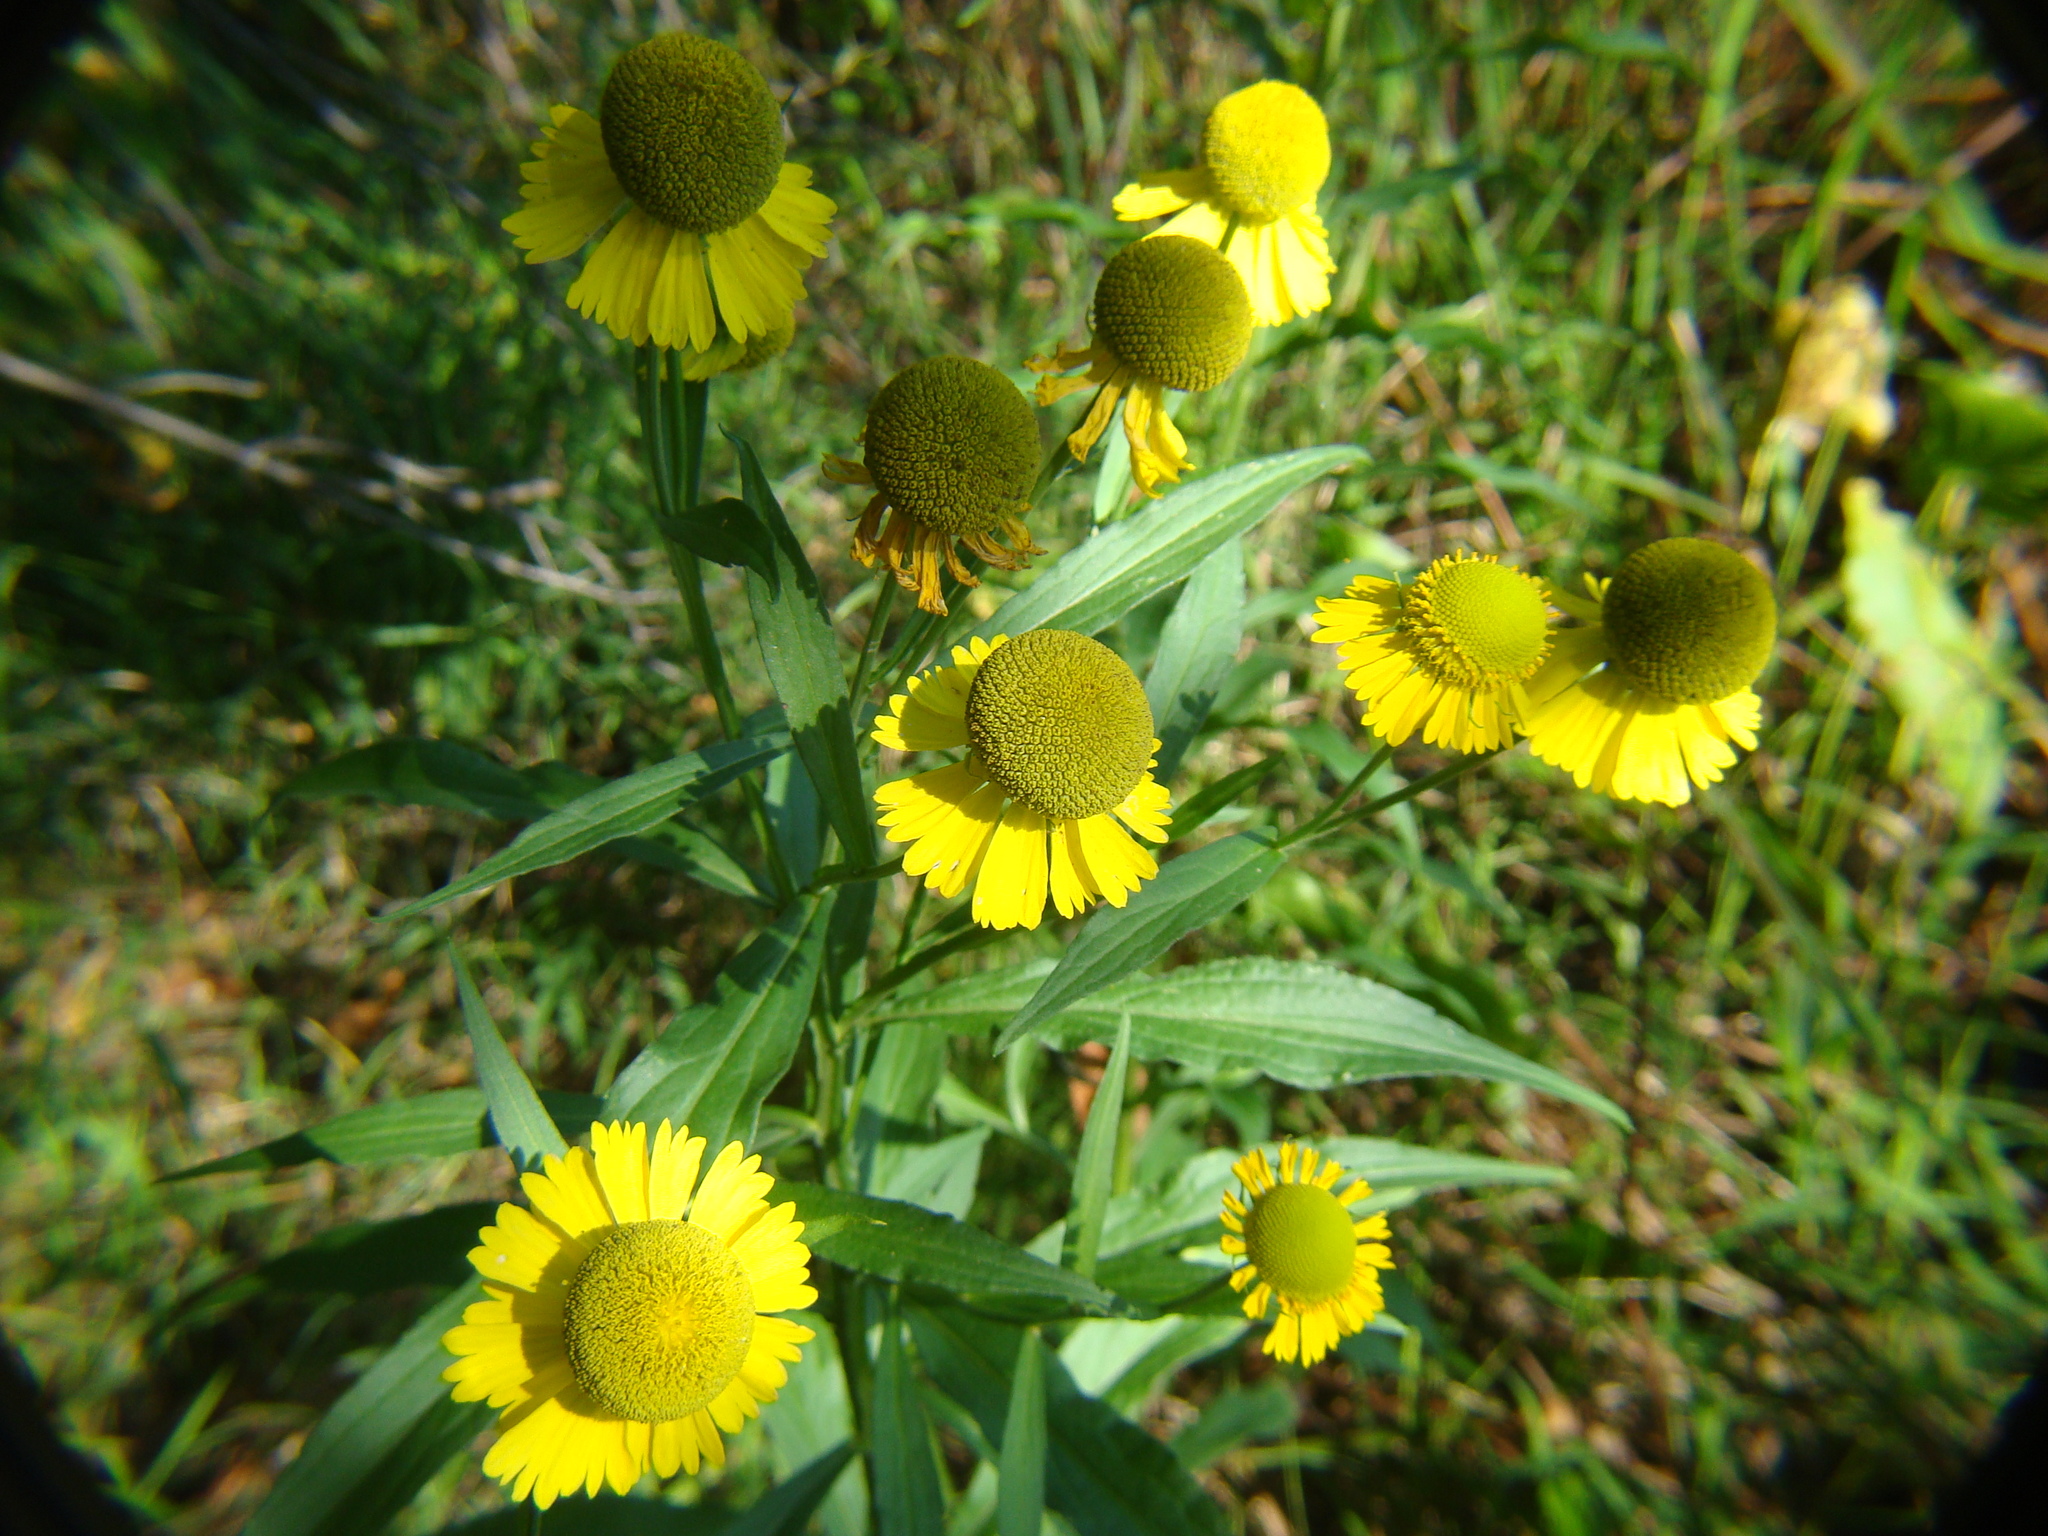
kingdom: Plantae
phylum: Tracheophyta
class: Magnoliopsida
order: Asterales
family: Asteraceae
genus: Helenium
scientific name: Helenium autumnale
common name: Sneezeweed
